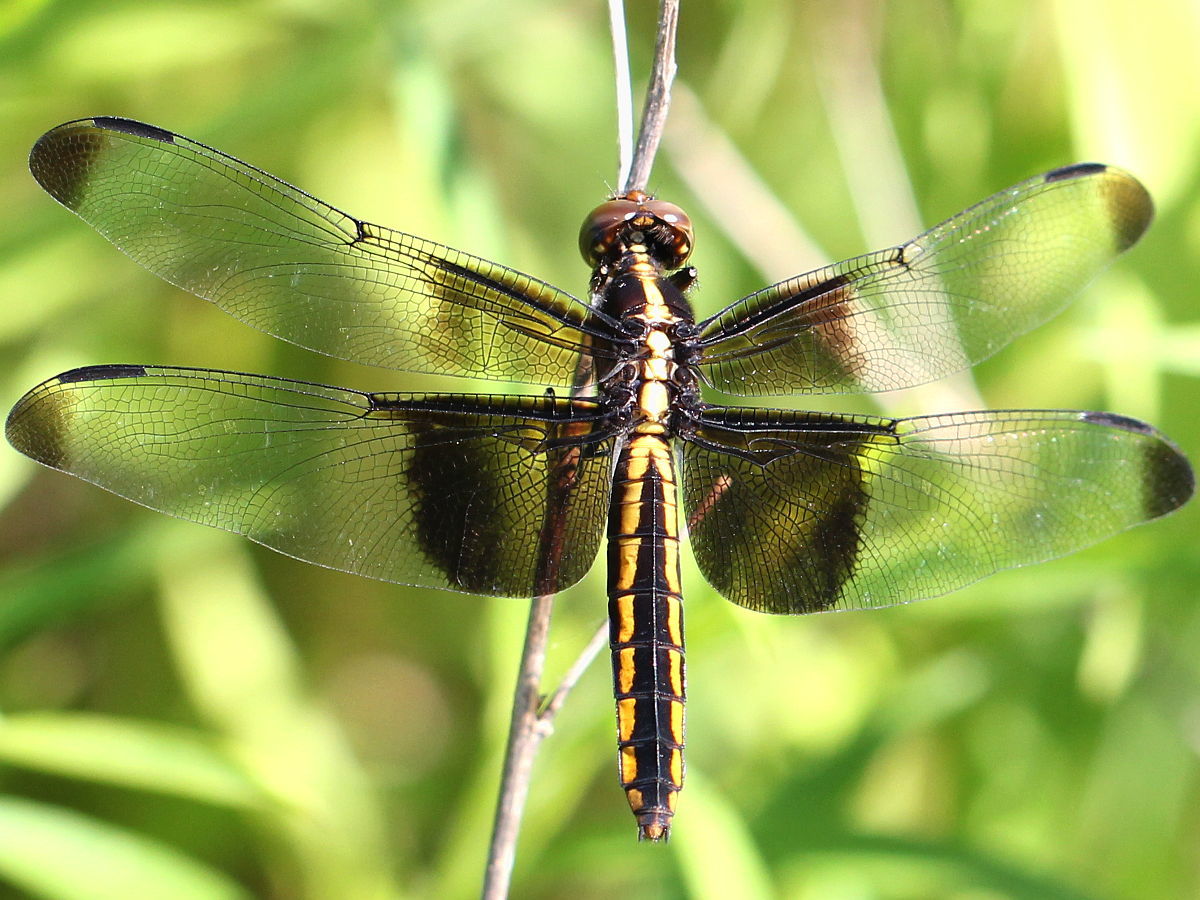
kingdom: Animalia
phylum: Arthropoda
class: Insecta
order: Odonata
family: Libellulidae
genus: Libellula
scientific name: Libellula luctuosa
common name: Widow skimmer
